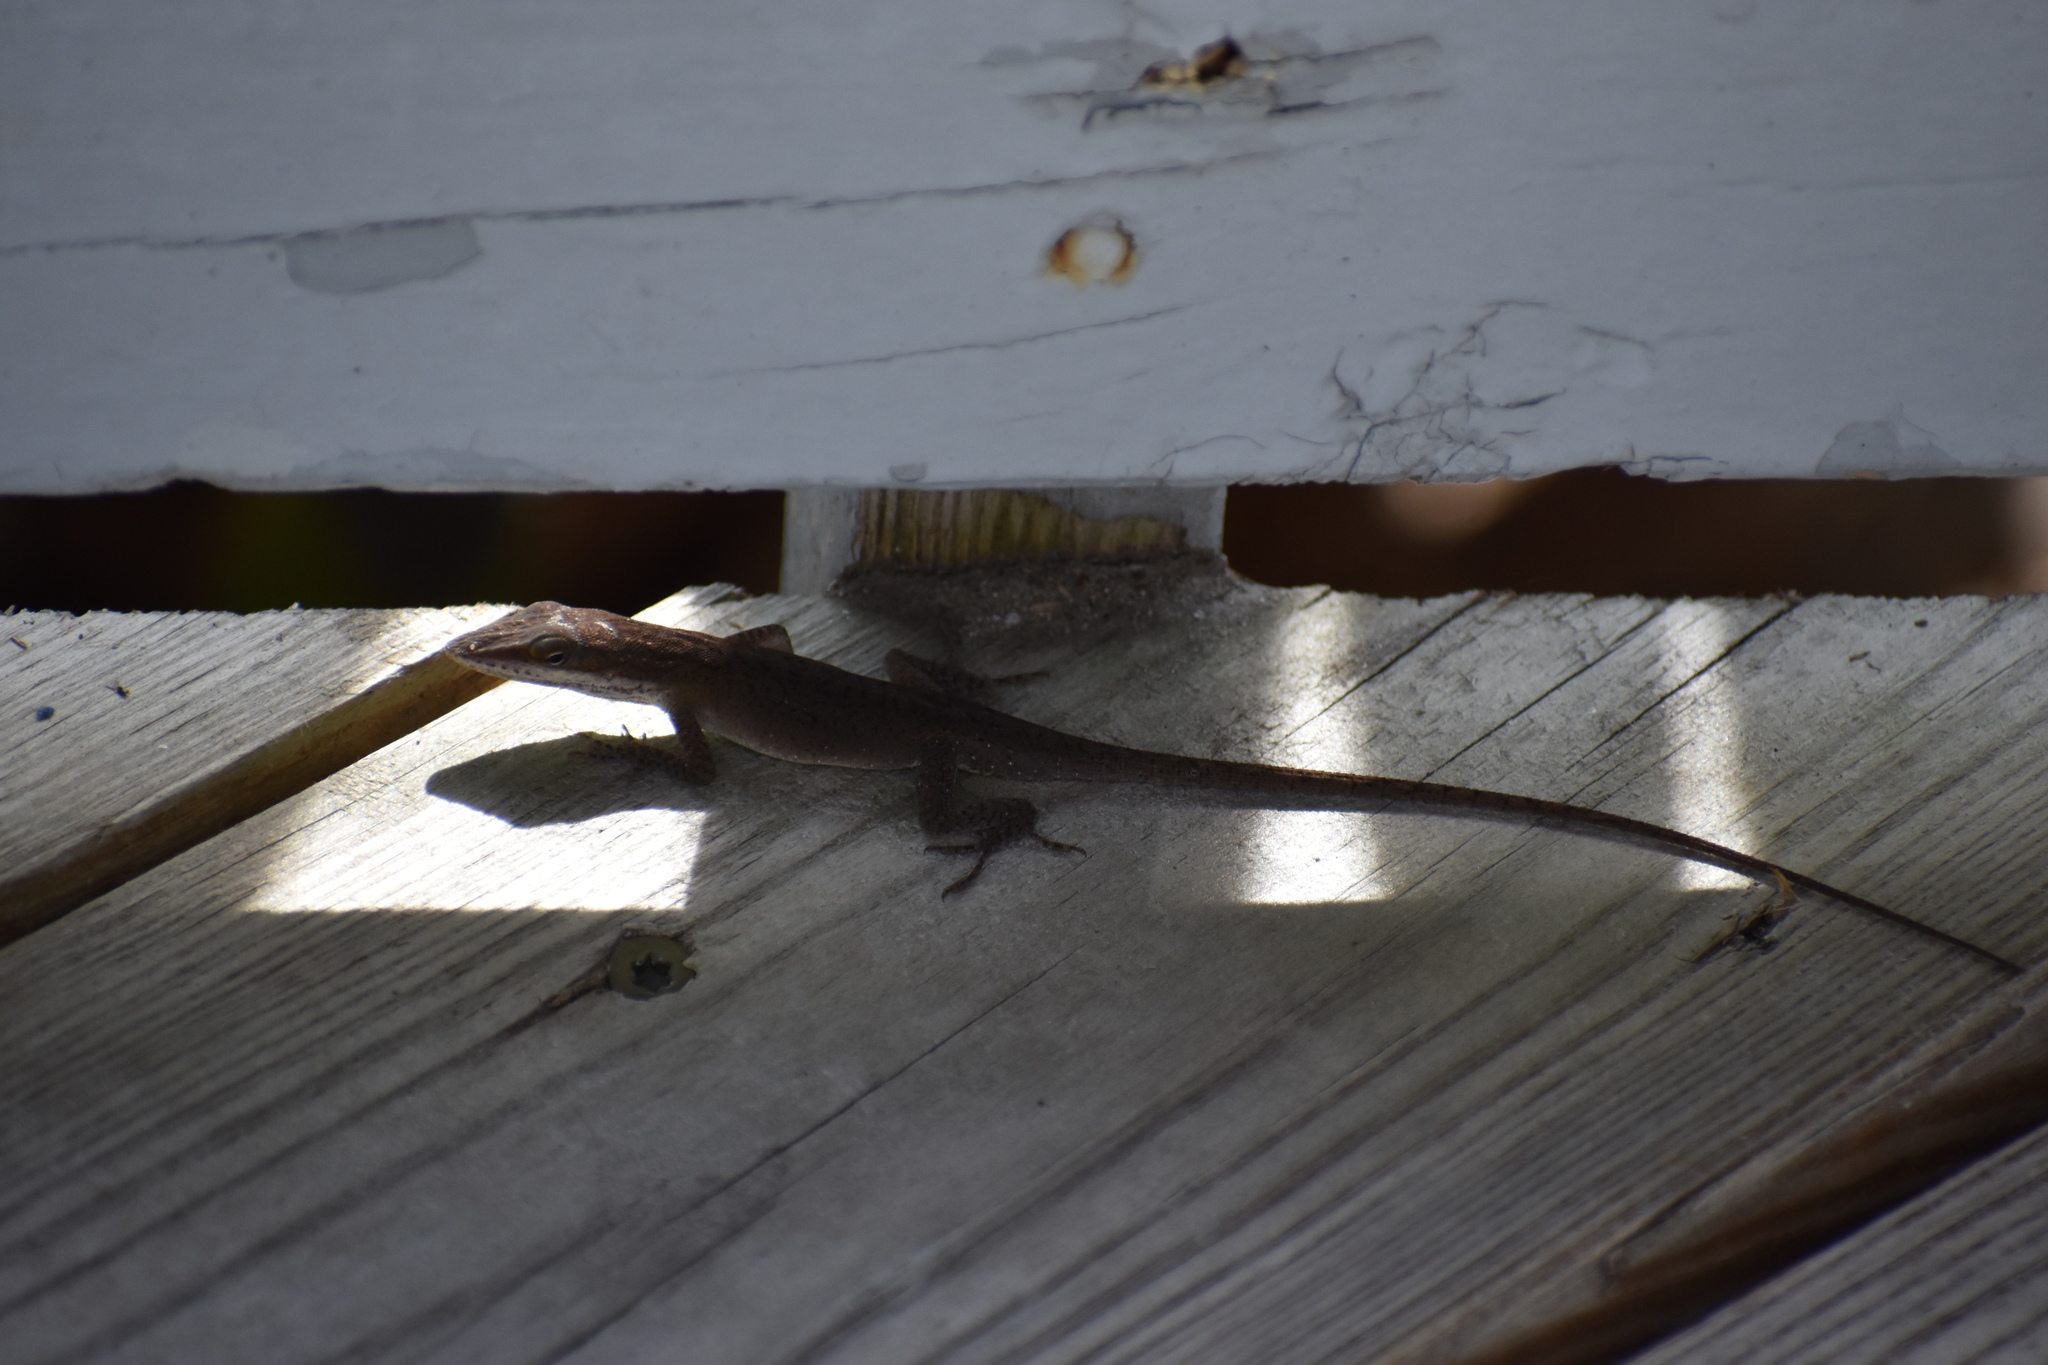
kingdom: Animalia
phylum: Chordata
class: Squamata
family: Dactyloidae
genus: Anolis
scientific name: Anolis carolinensis
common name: Green anole
